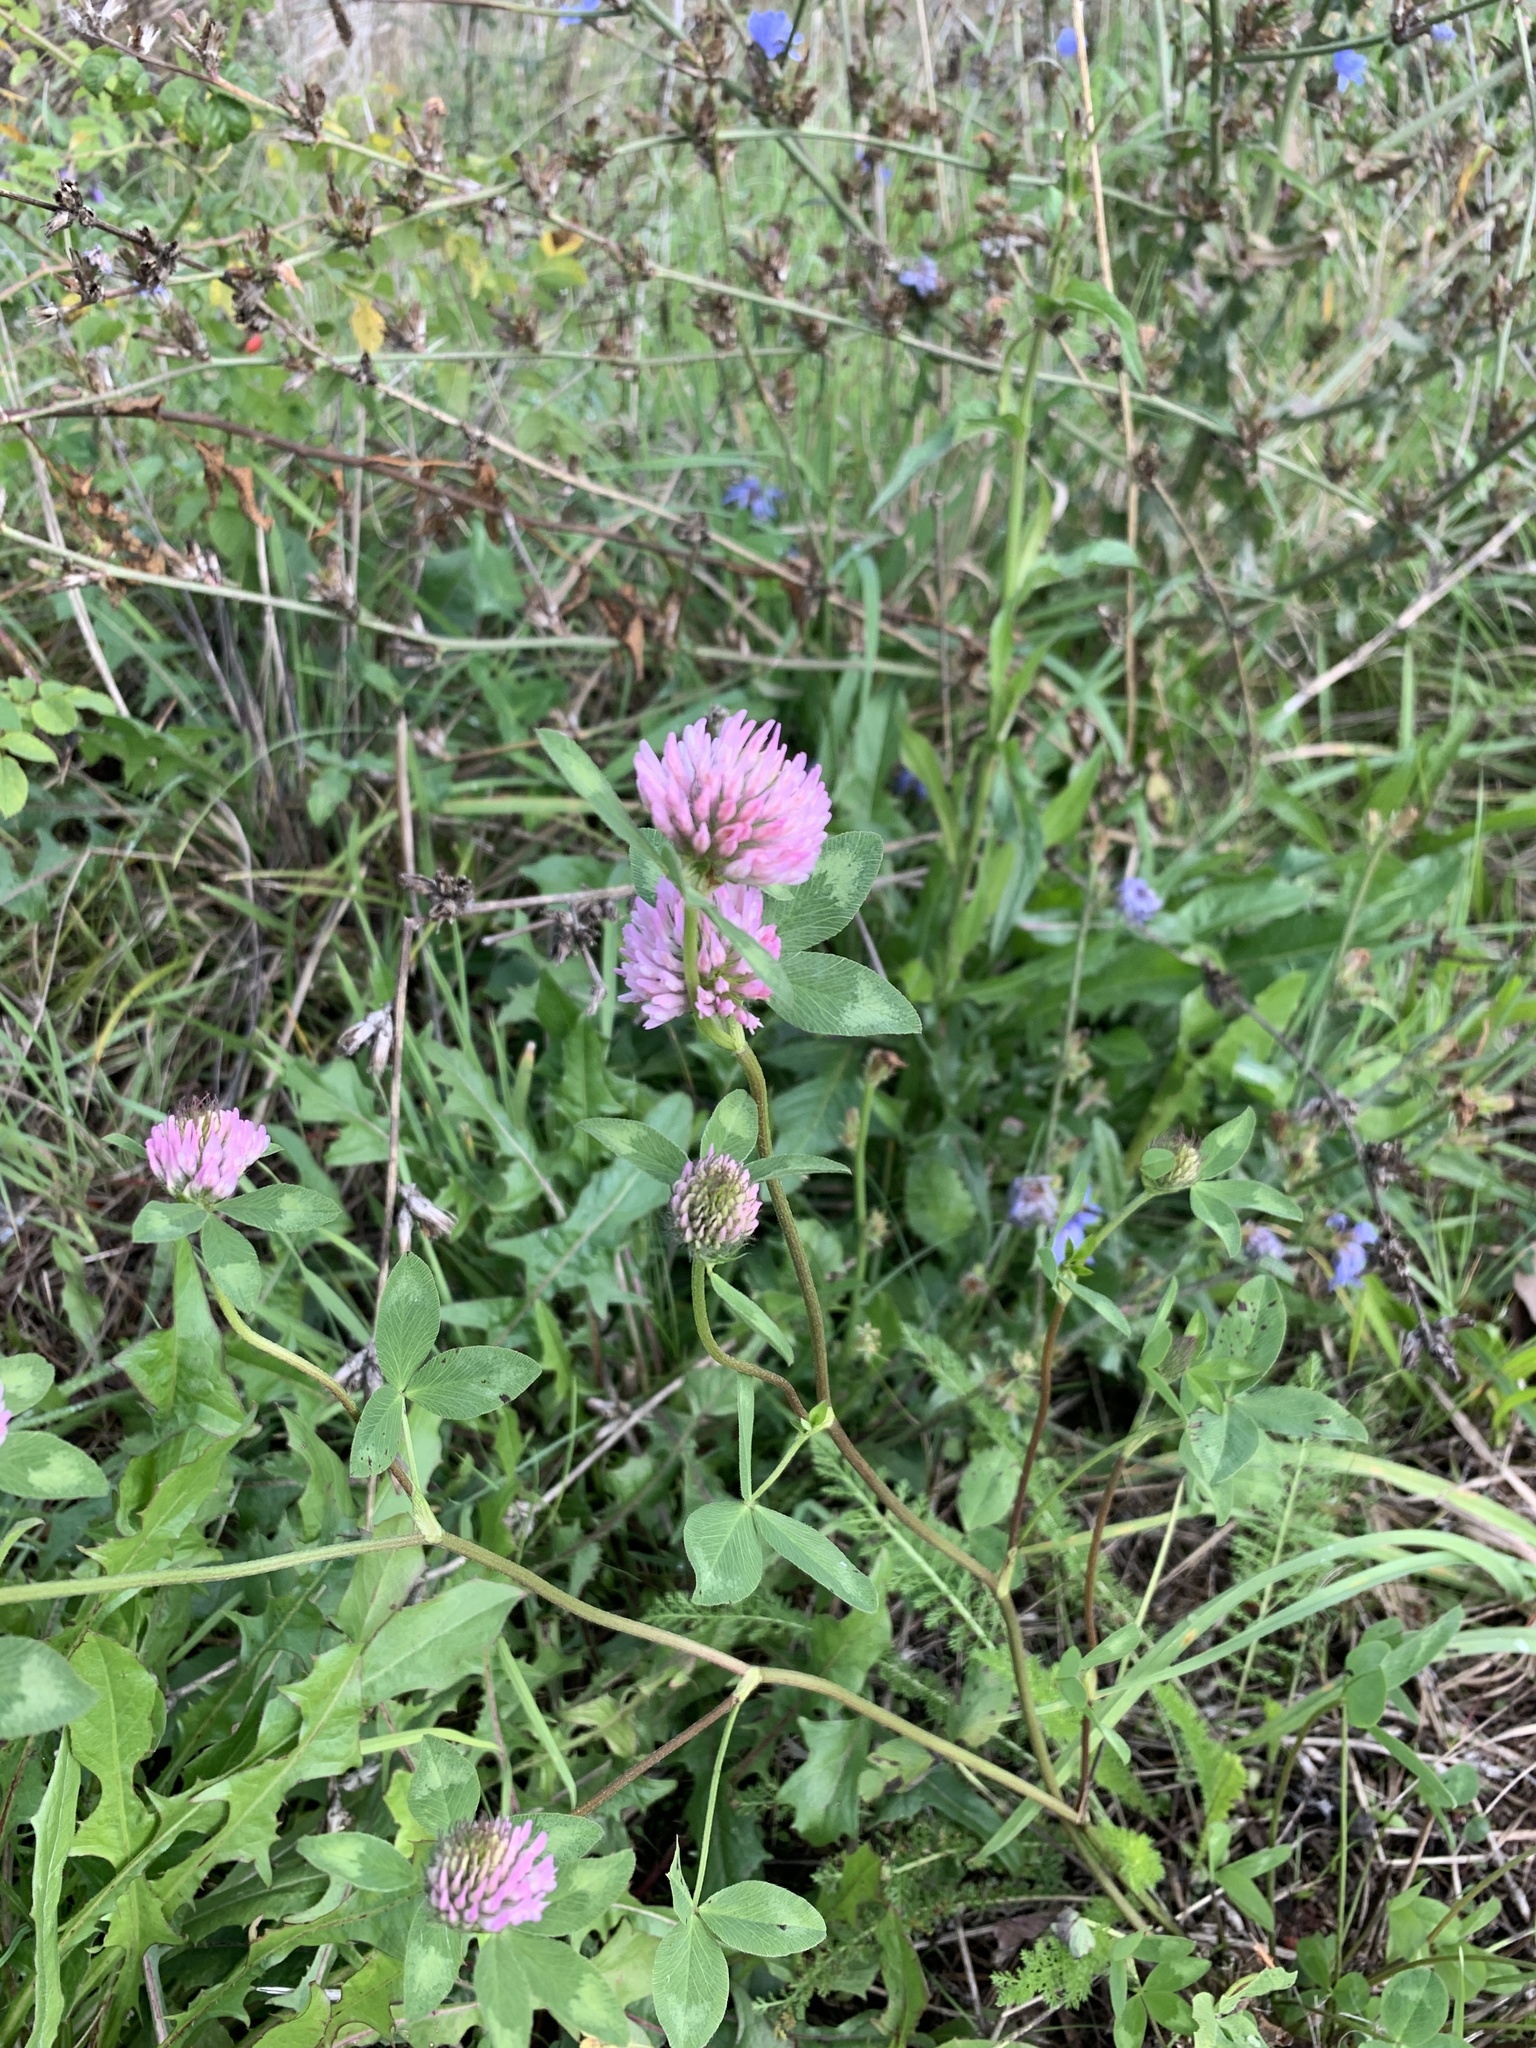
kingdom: Plantae
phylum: Tracheophyta
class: Magnoliopsida
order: Fabales
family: Fabaceae
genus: Trifolium
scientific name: Trifolium pratense
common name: Red clover
